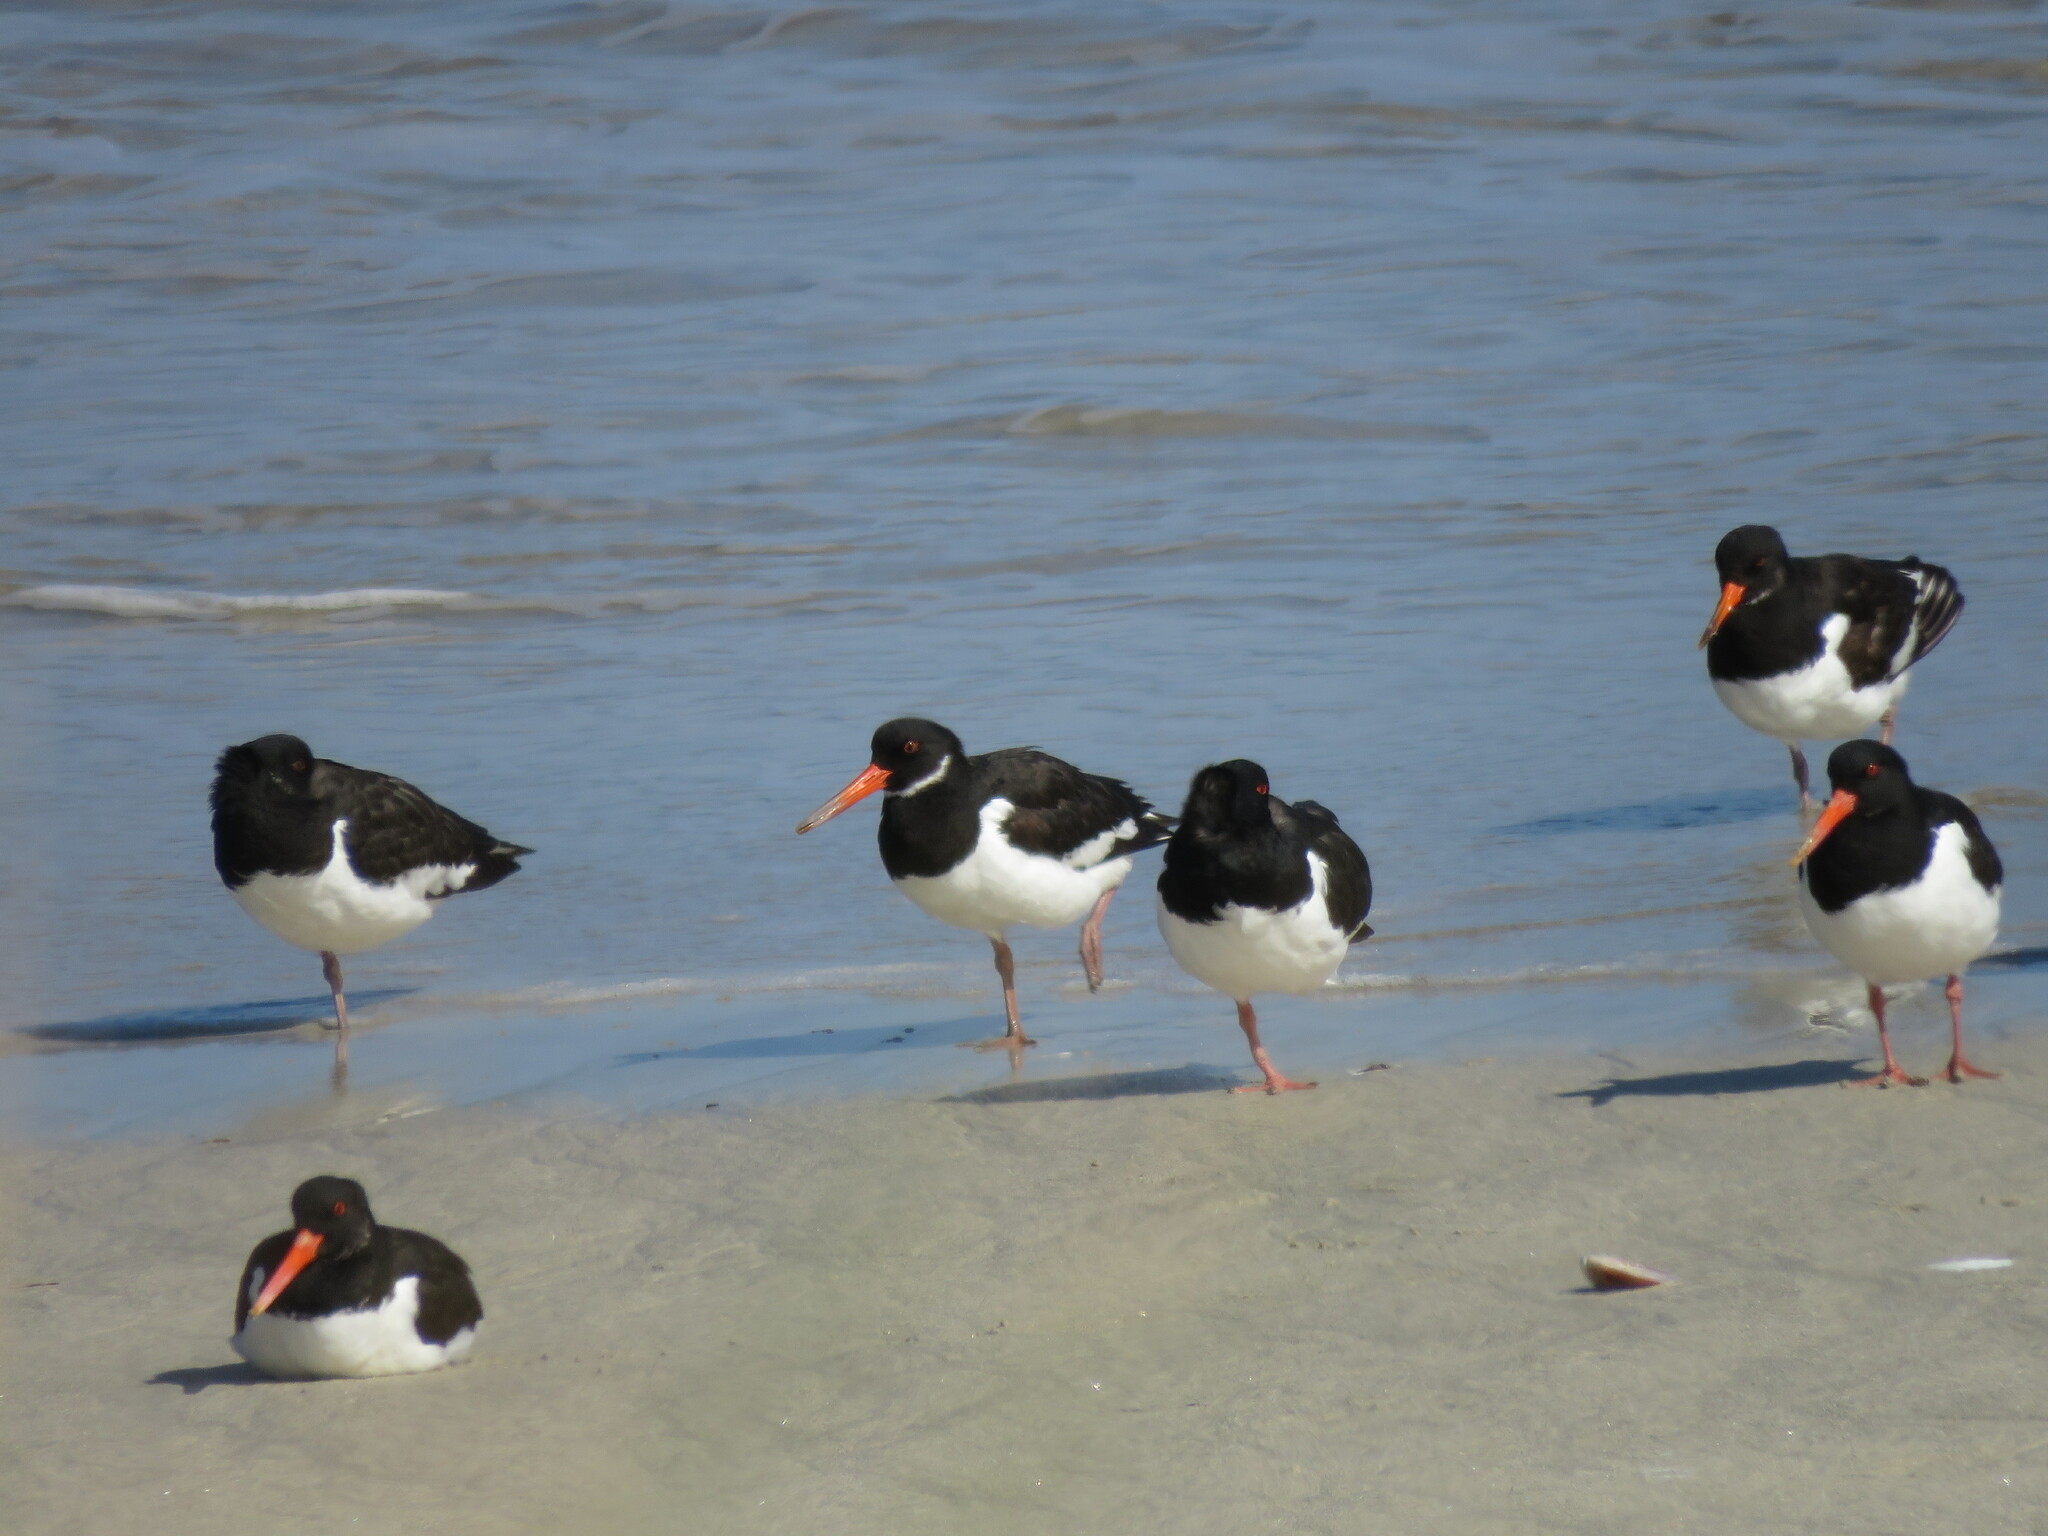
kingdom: Animalia
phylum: Chordata
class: Aves
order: Charadriiformes
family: Haematopodidae
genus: Haematopus
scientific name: Haematopus ostralegus
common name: Eurasian oystercatcher
